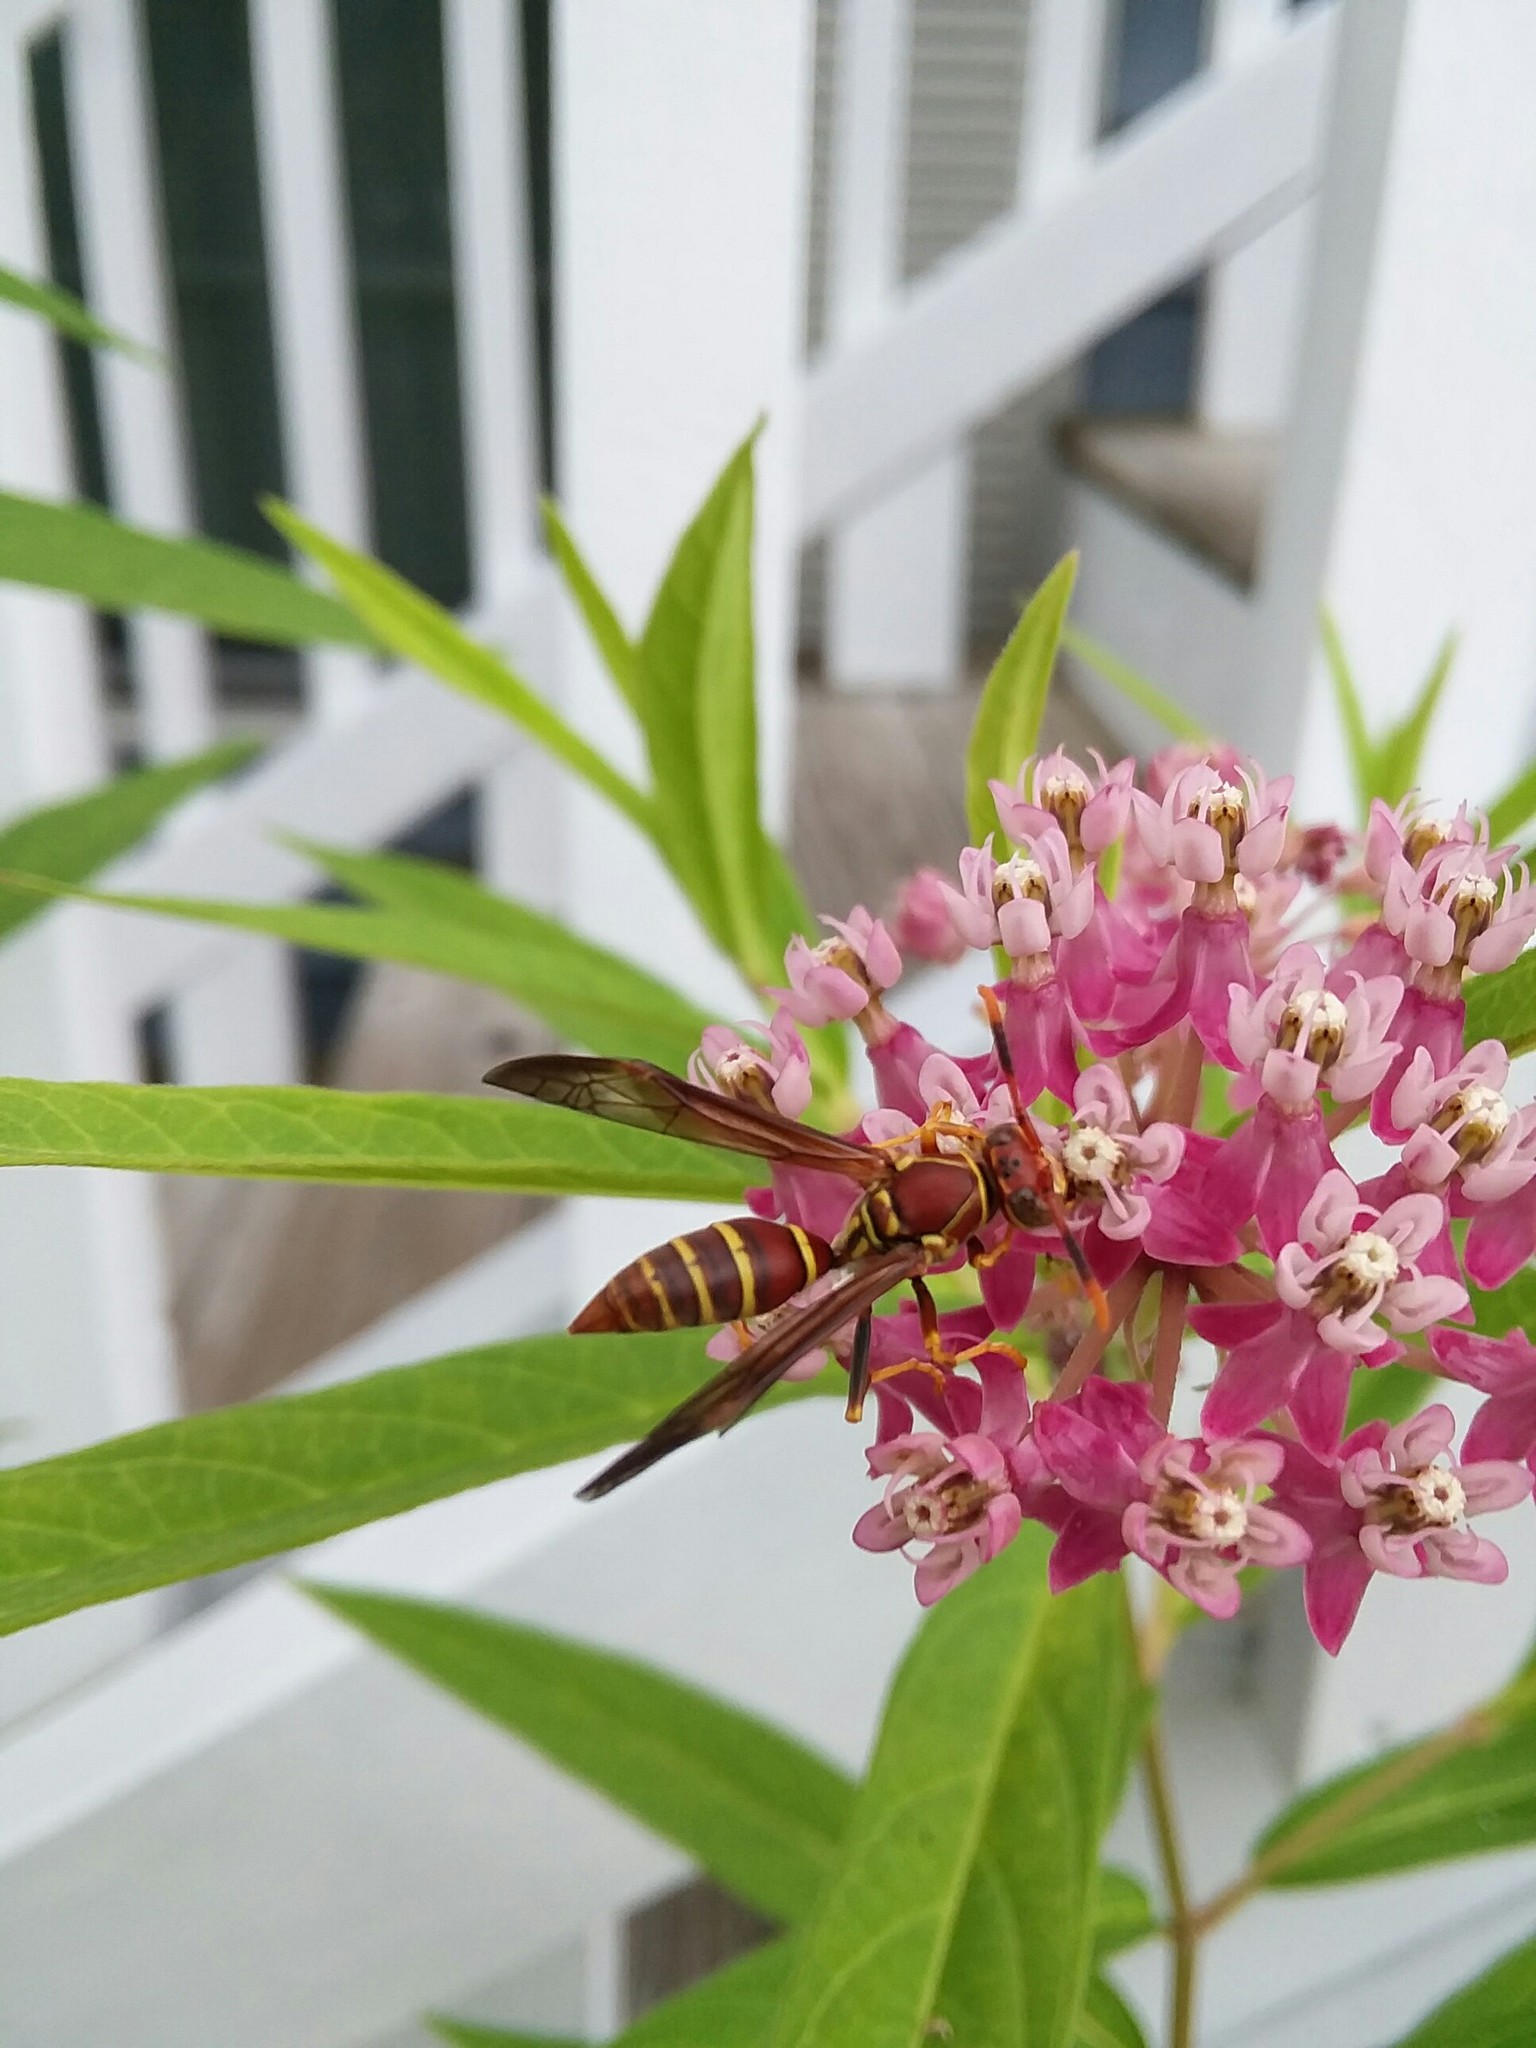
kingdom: Animalia
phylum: Arthropoda
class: Insecta
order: Hymenoptera
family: Eumenidae
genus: Polistes
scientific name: Polistes exclamans
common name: Paper wasp
